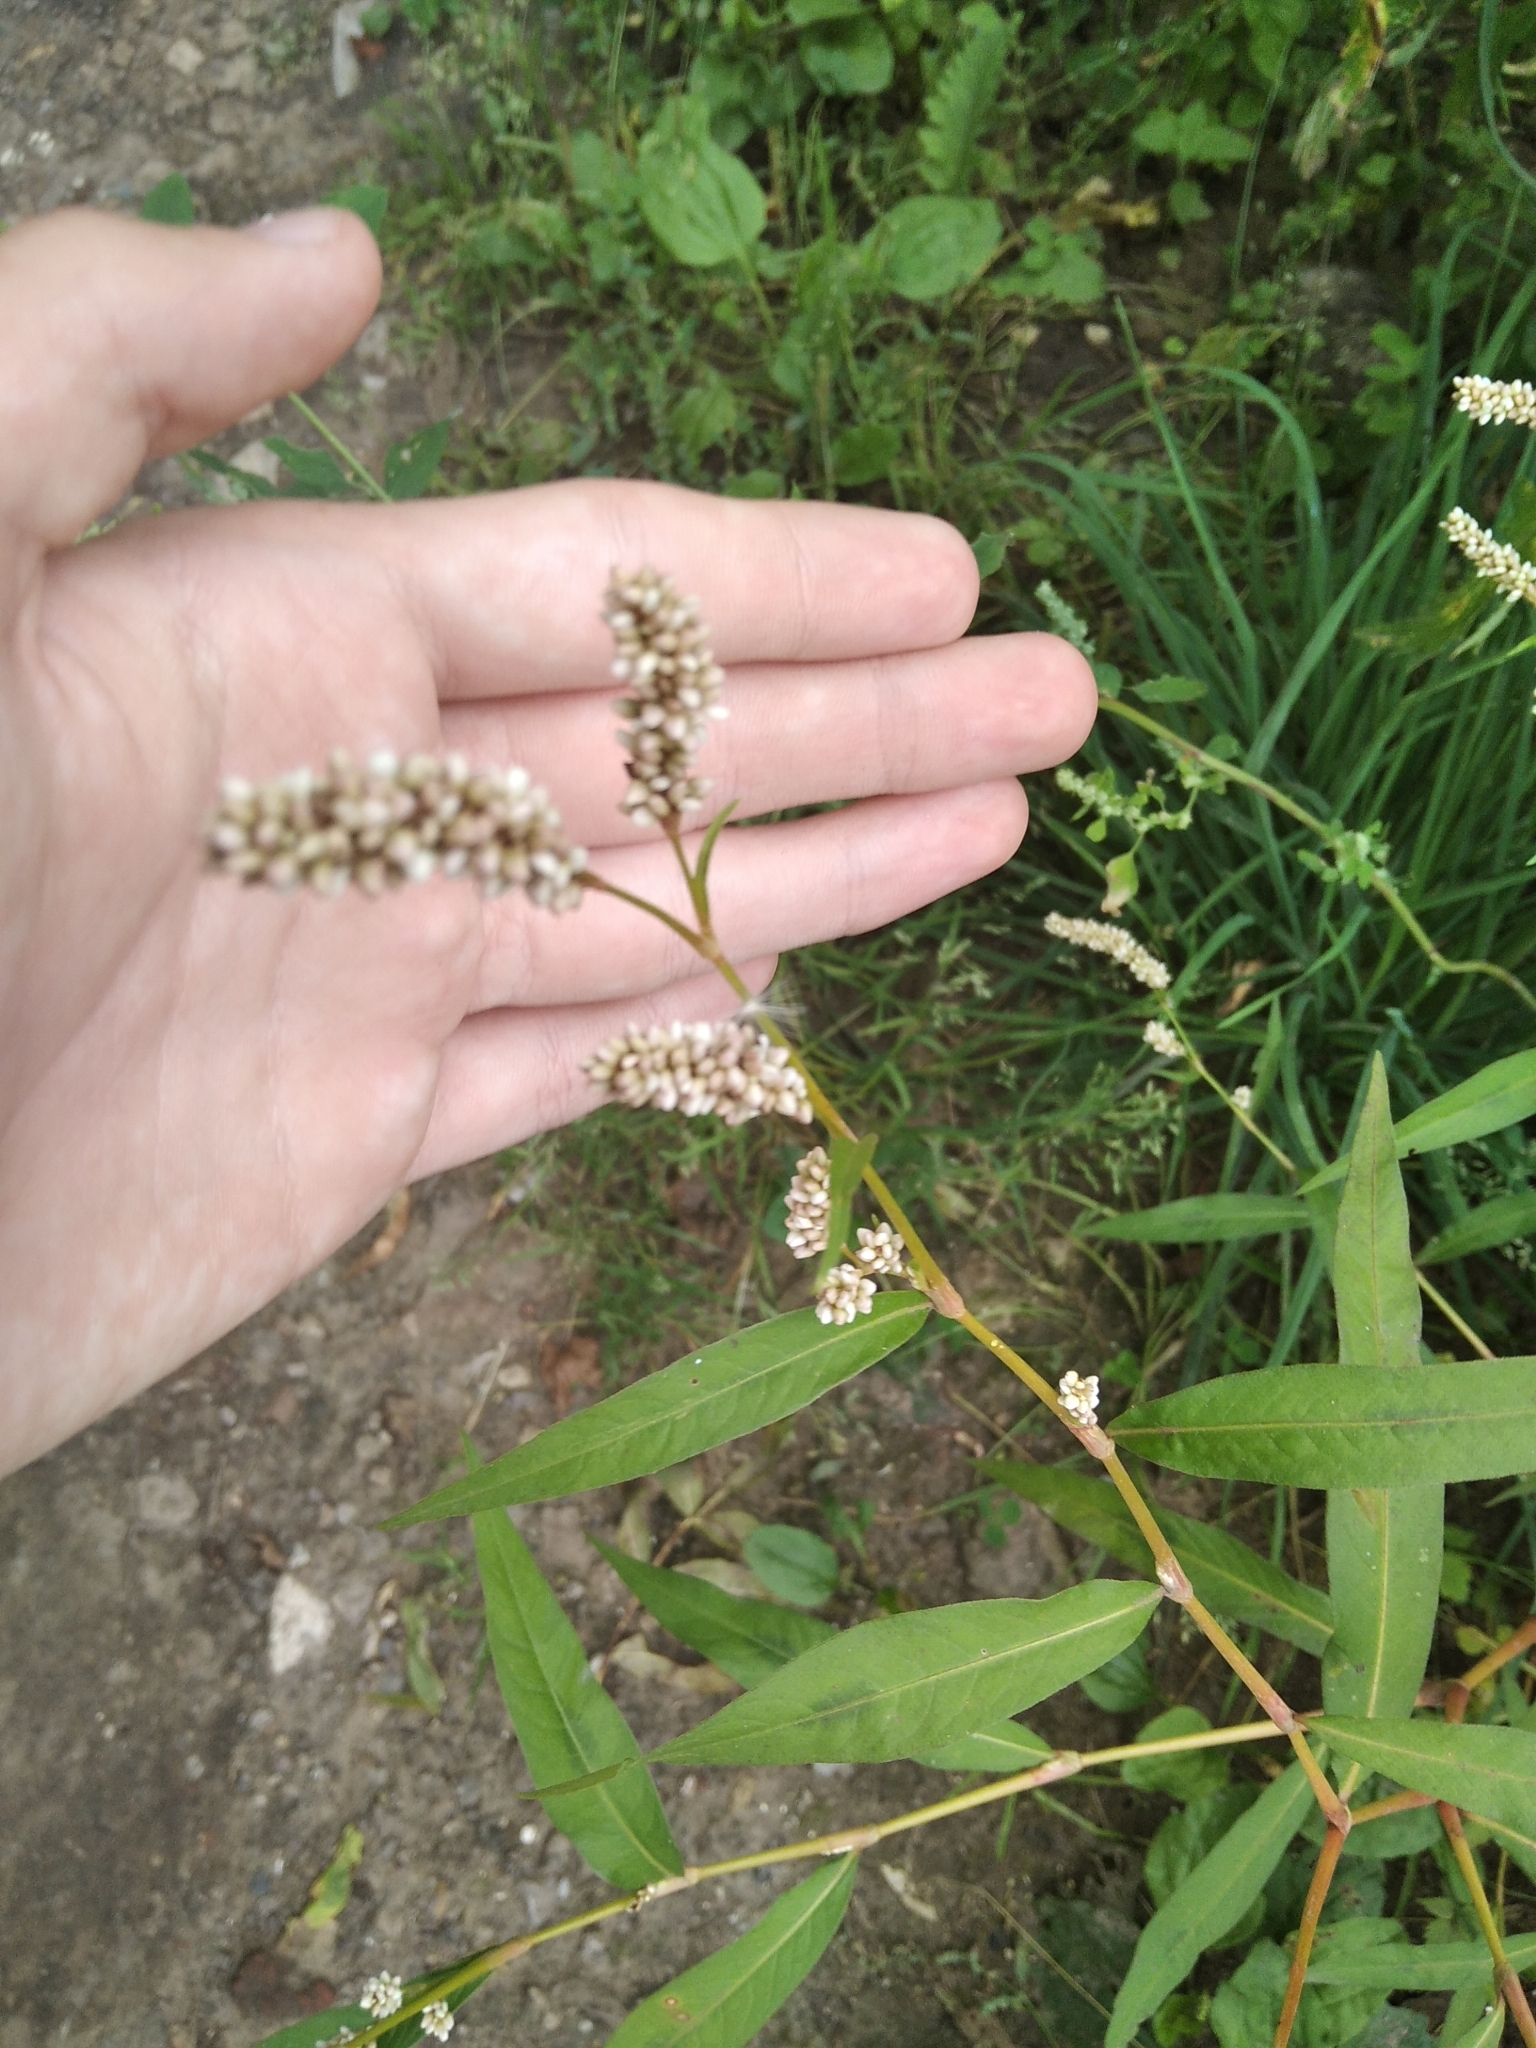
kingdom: Plantae
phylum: Tracheophyta
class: Magnoliopsida
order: Caryophyllales
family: Polygonaceae
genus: Persicaria
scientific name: Persicaria lapathifolia
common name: Curlytop knotweed
